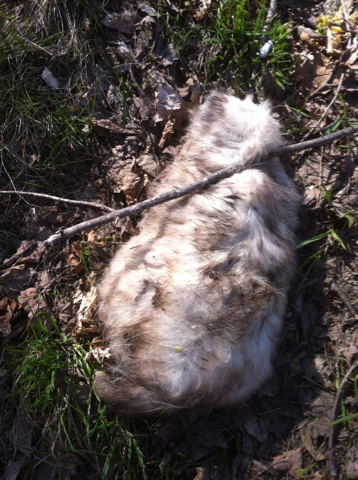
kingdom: Animalia
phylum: Chordata
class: Mammalia
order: Didelphimorphia
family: Didelphidae
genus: Didelphis
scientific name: Didelphis virginiana
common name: Virginia opossum
